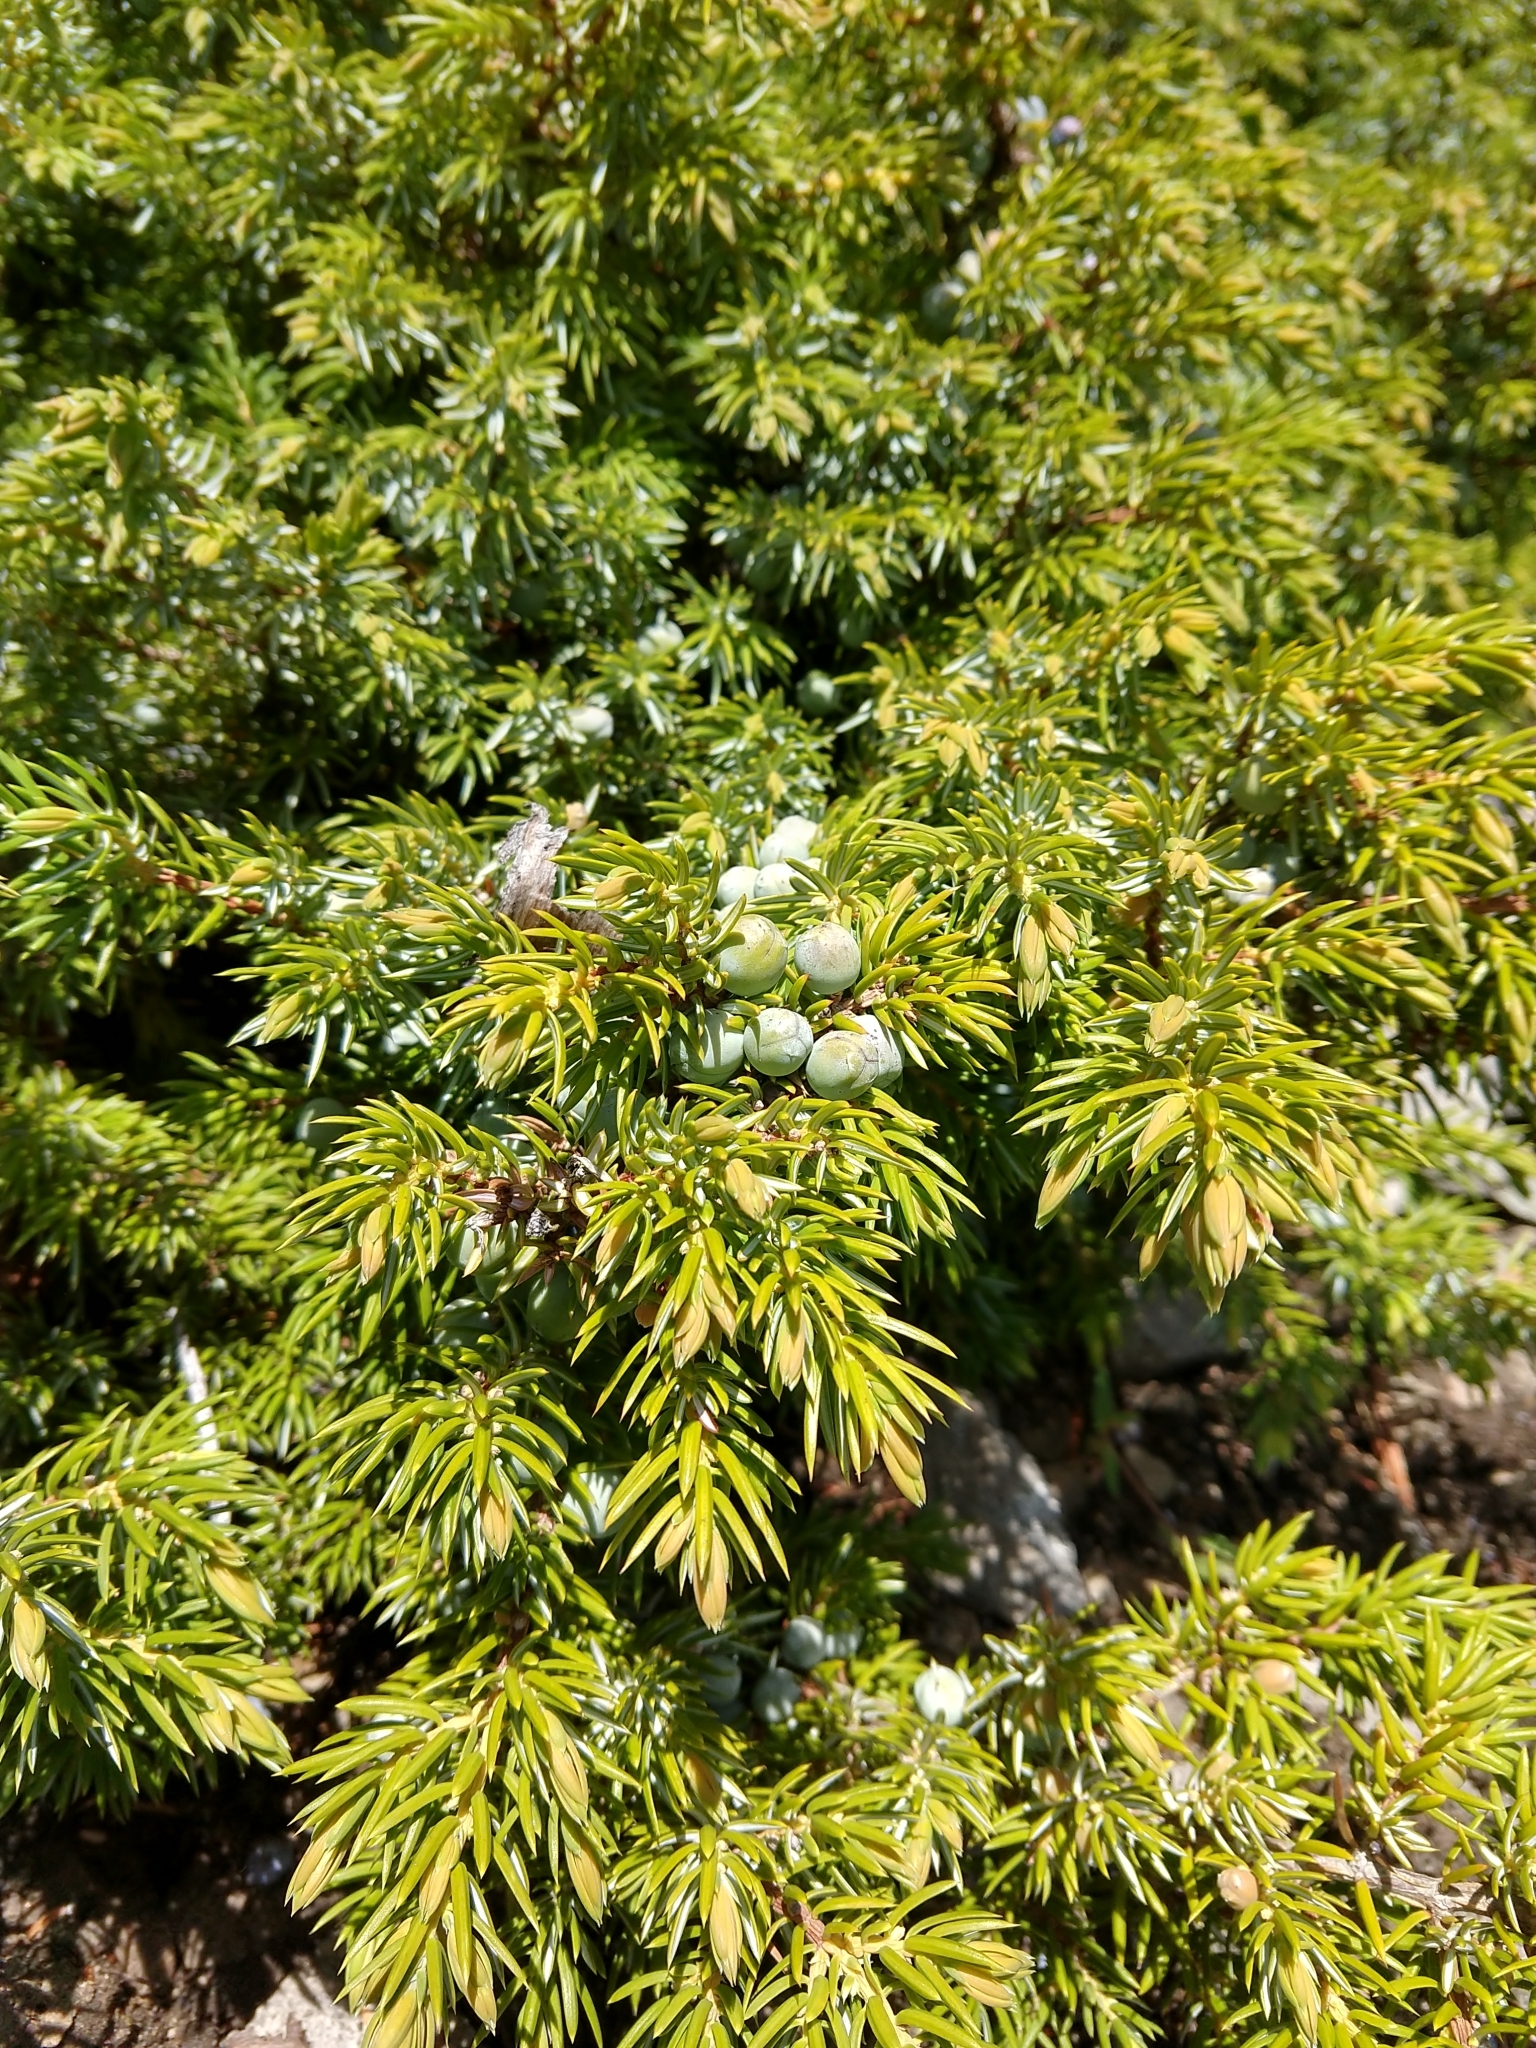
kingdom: Plantae
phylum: Tracheophyta
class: Pinopsida
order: Pinales
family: Cupressaceae
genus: Juniperus
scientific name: Juniperus communis
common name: Common juniper
